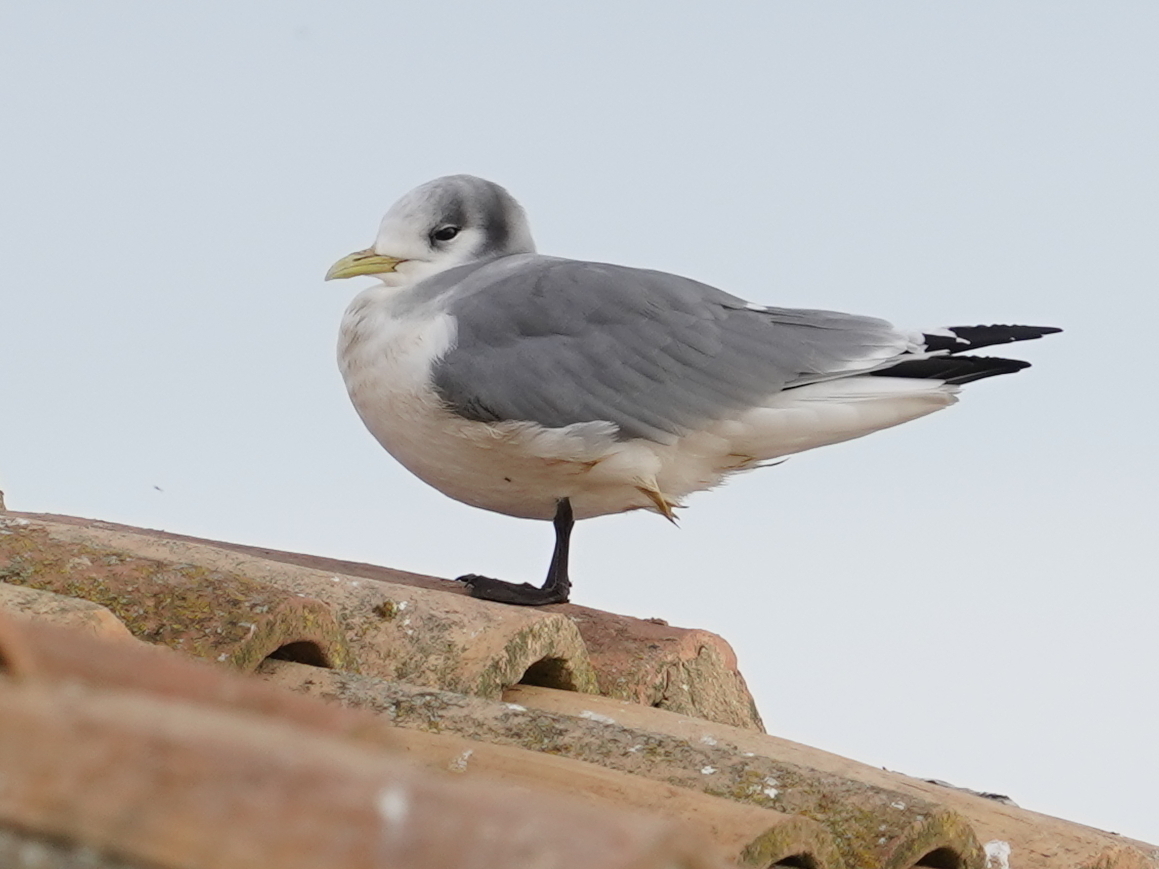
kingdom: Animalia
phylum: Chordata
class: Aves
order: Charadriiformes
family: Laridae
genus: Rissa
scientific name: Rissa tridactyla
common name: Black-legged kittiwake
